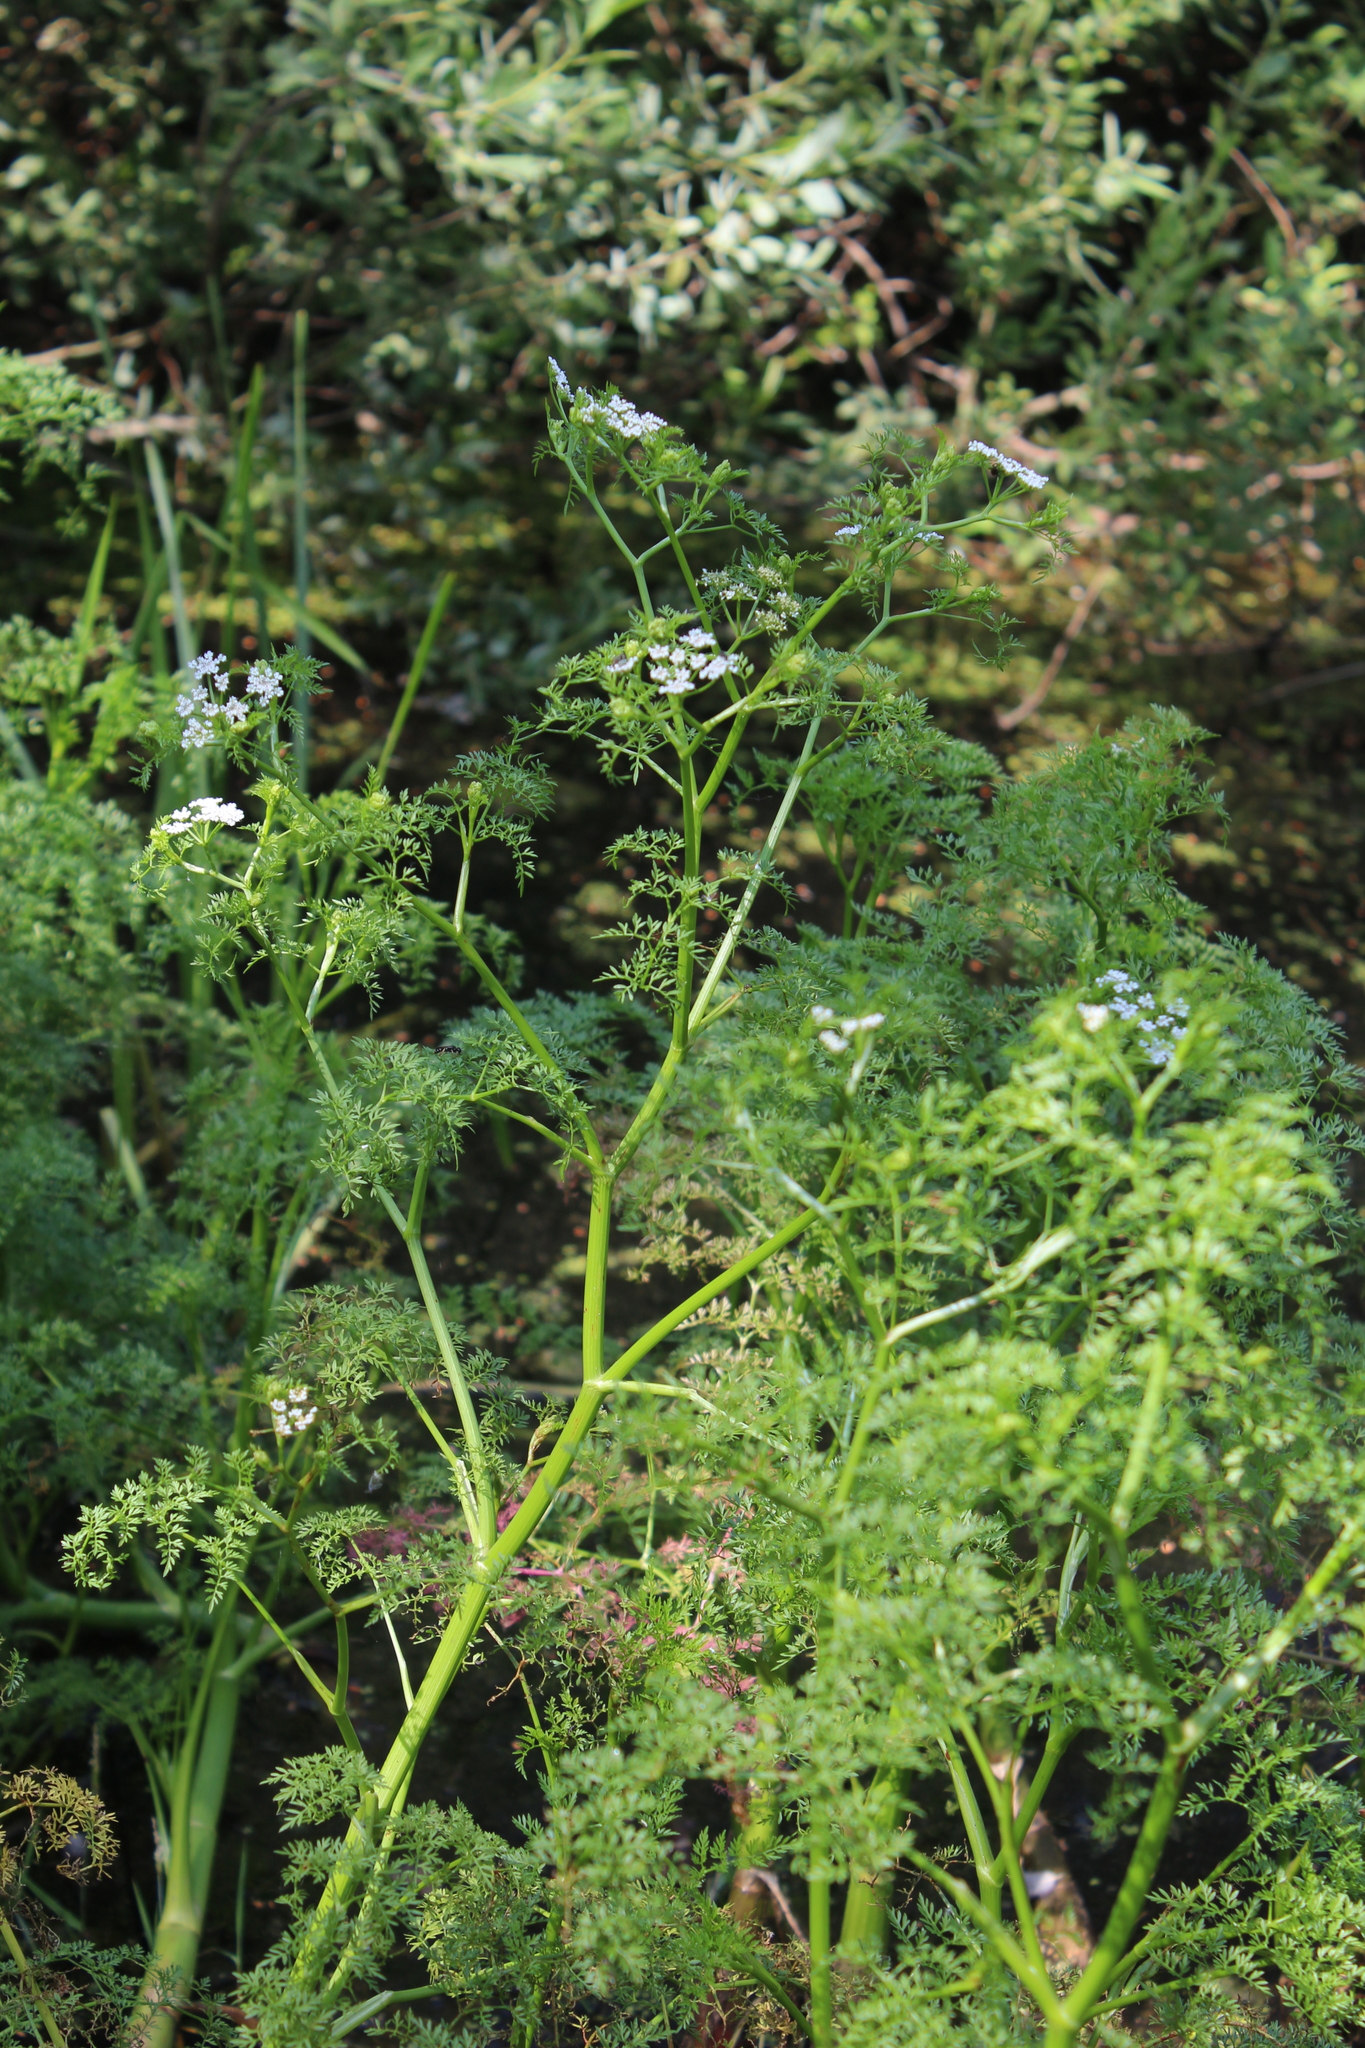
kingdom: Plantae
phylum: Tracheophyta
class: Magnoliopsida
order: Apiales
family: Apiaceae
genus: Oenanthe
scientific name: Oenanthe aquatica
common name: Fine-leaved water-dropwort
